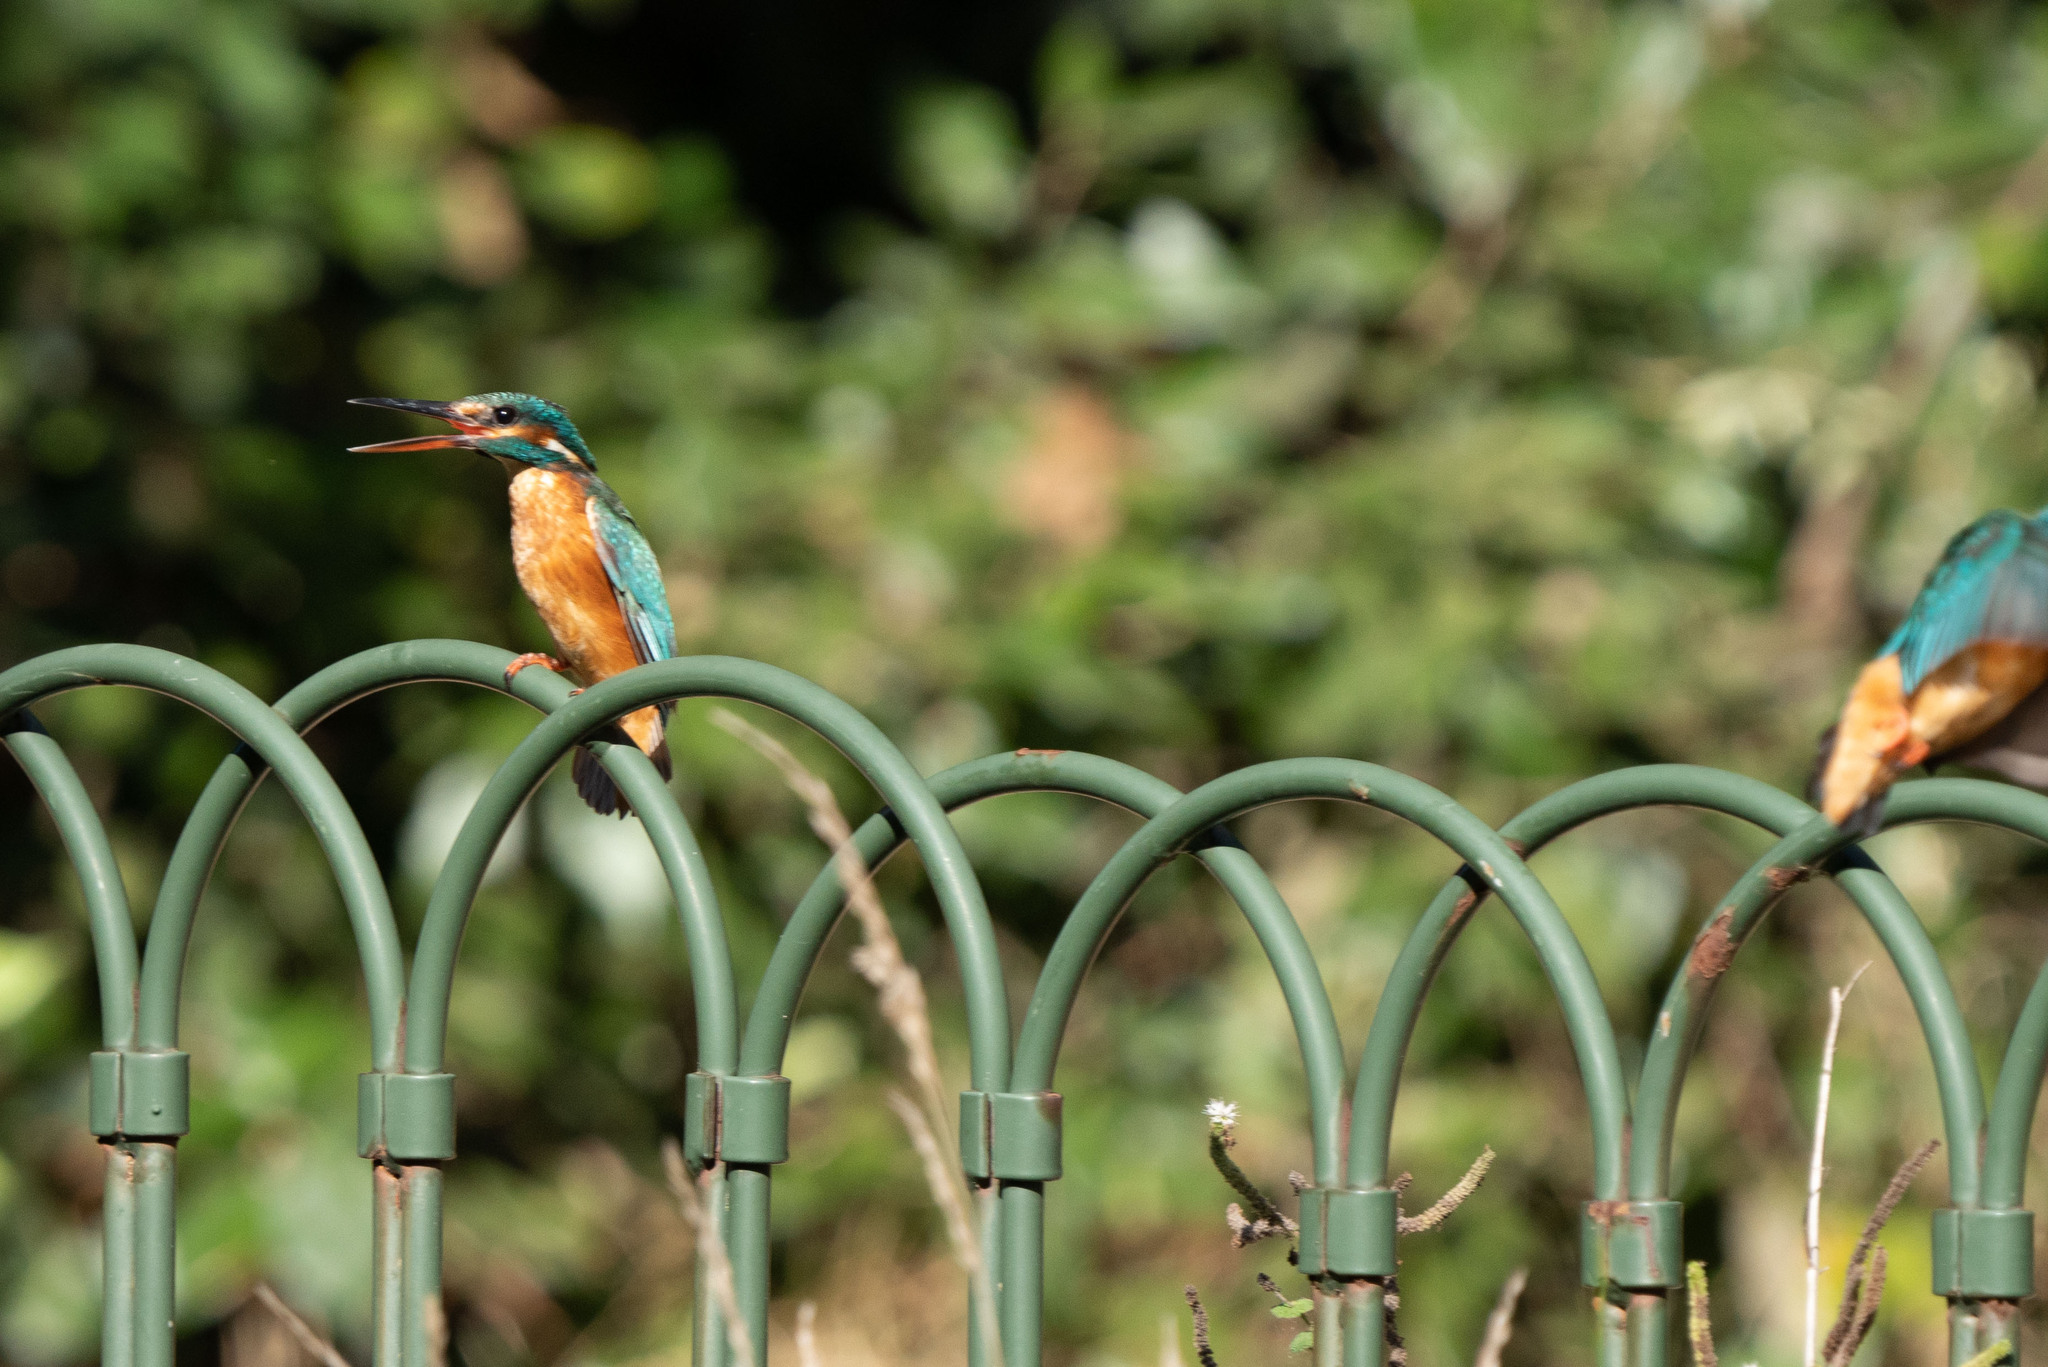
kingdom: Animalia
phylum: Chordata
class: Aves
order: Coraciiformes
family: Alcedinidae
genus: Alcedo
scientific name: Alcedo atthis
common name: Common kingfisher
